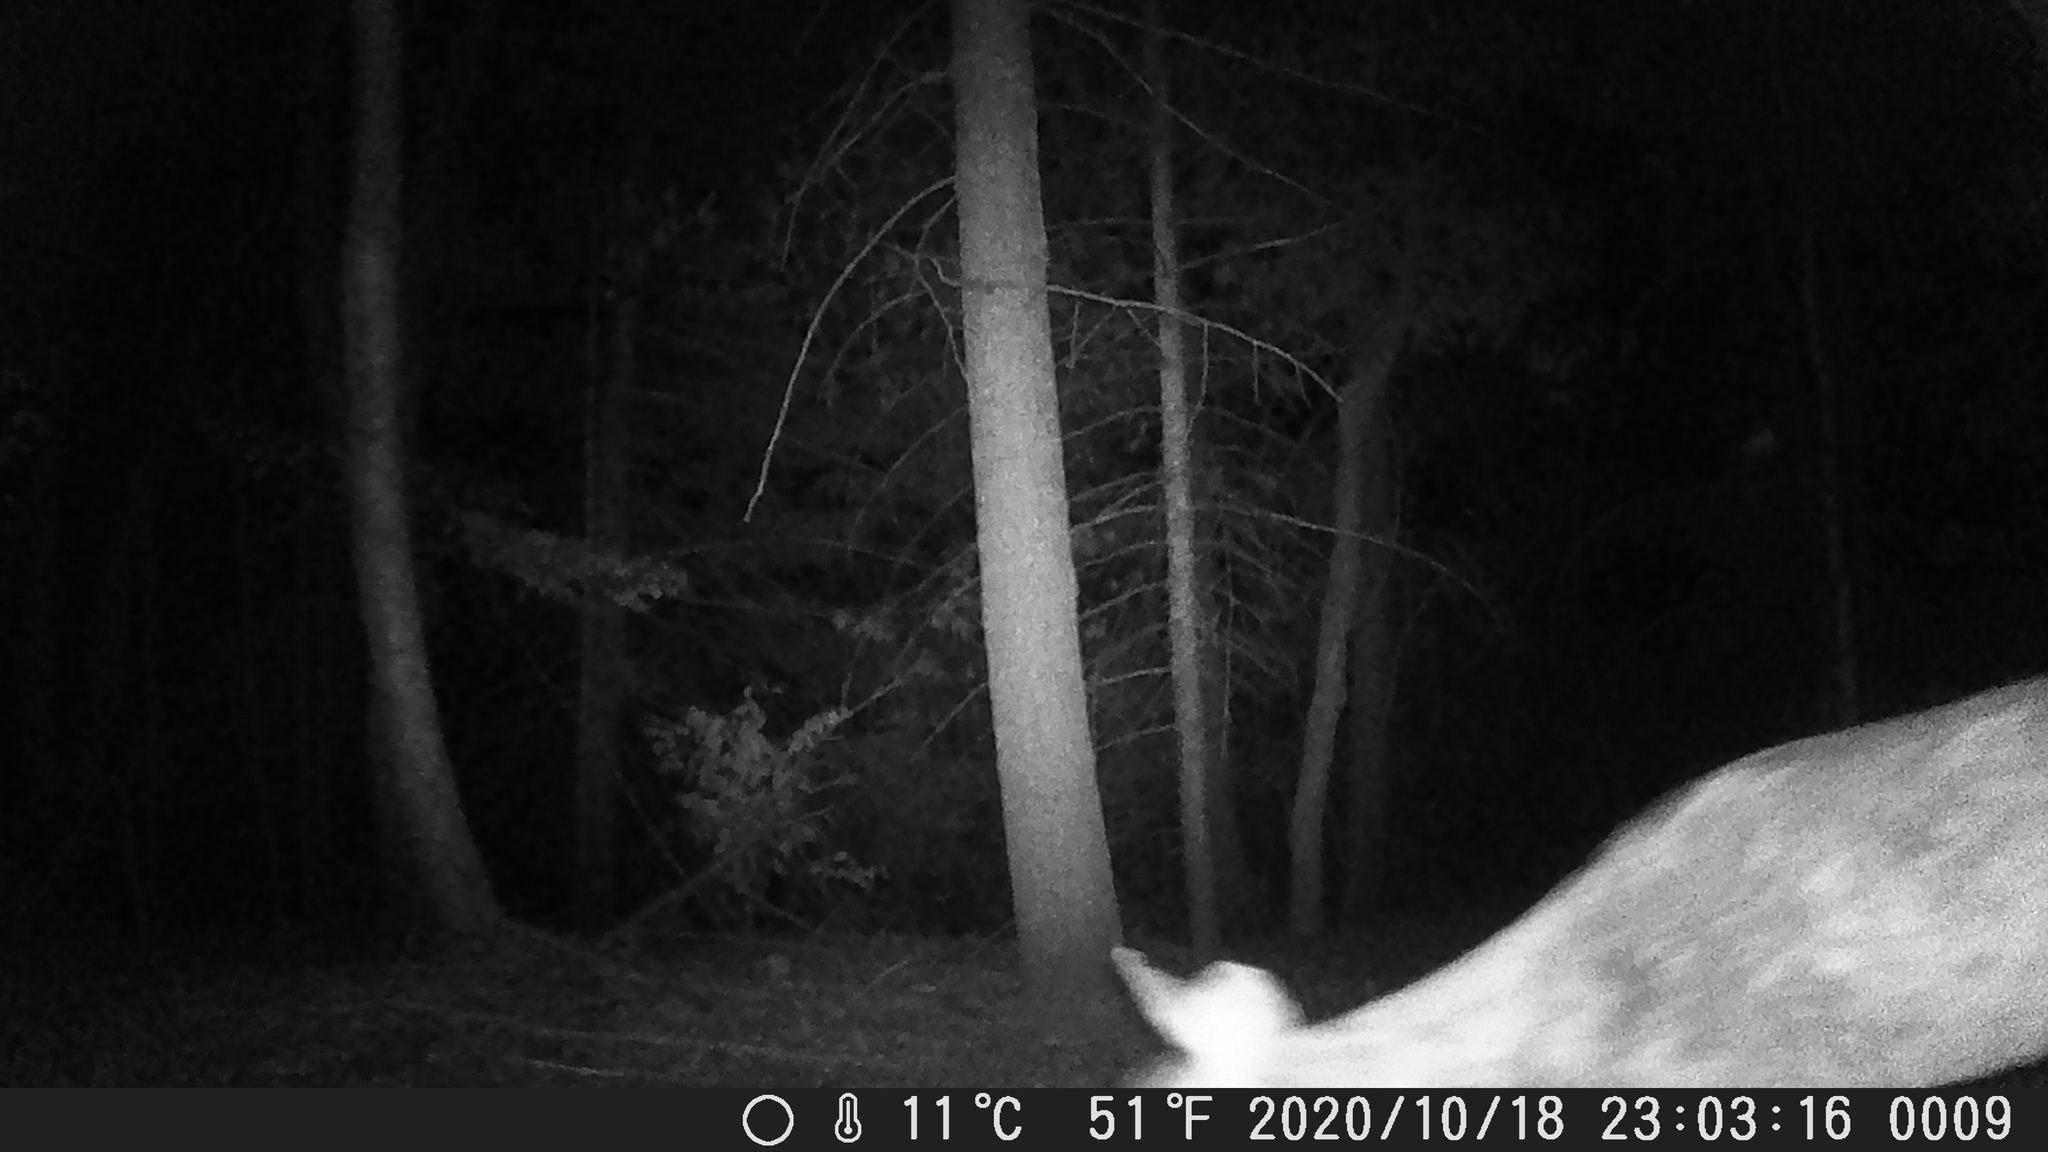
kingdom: Animalia
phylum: Chordata
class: Mammalia
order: Artiodactyla
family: Cervidae
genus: Odocoileus
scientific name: Odocoileus virginianus
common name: White-tailed deer
